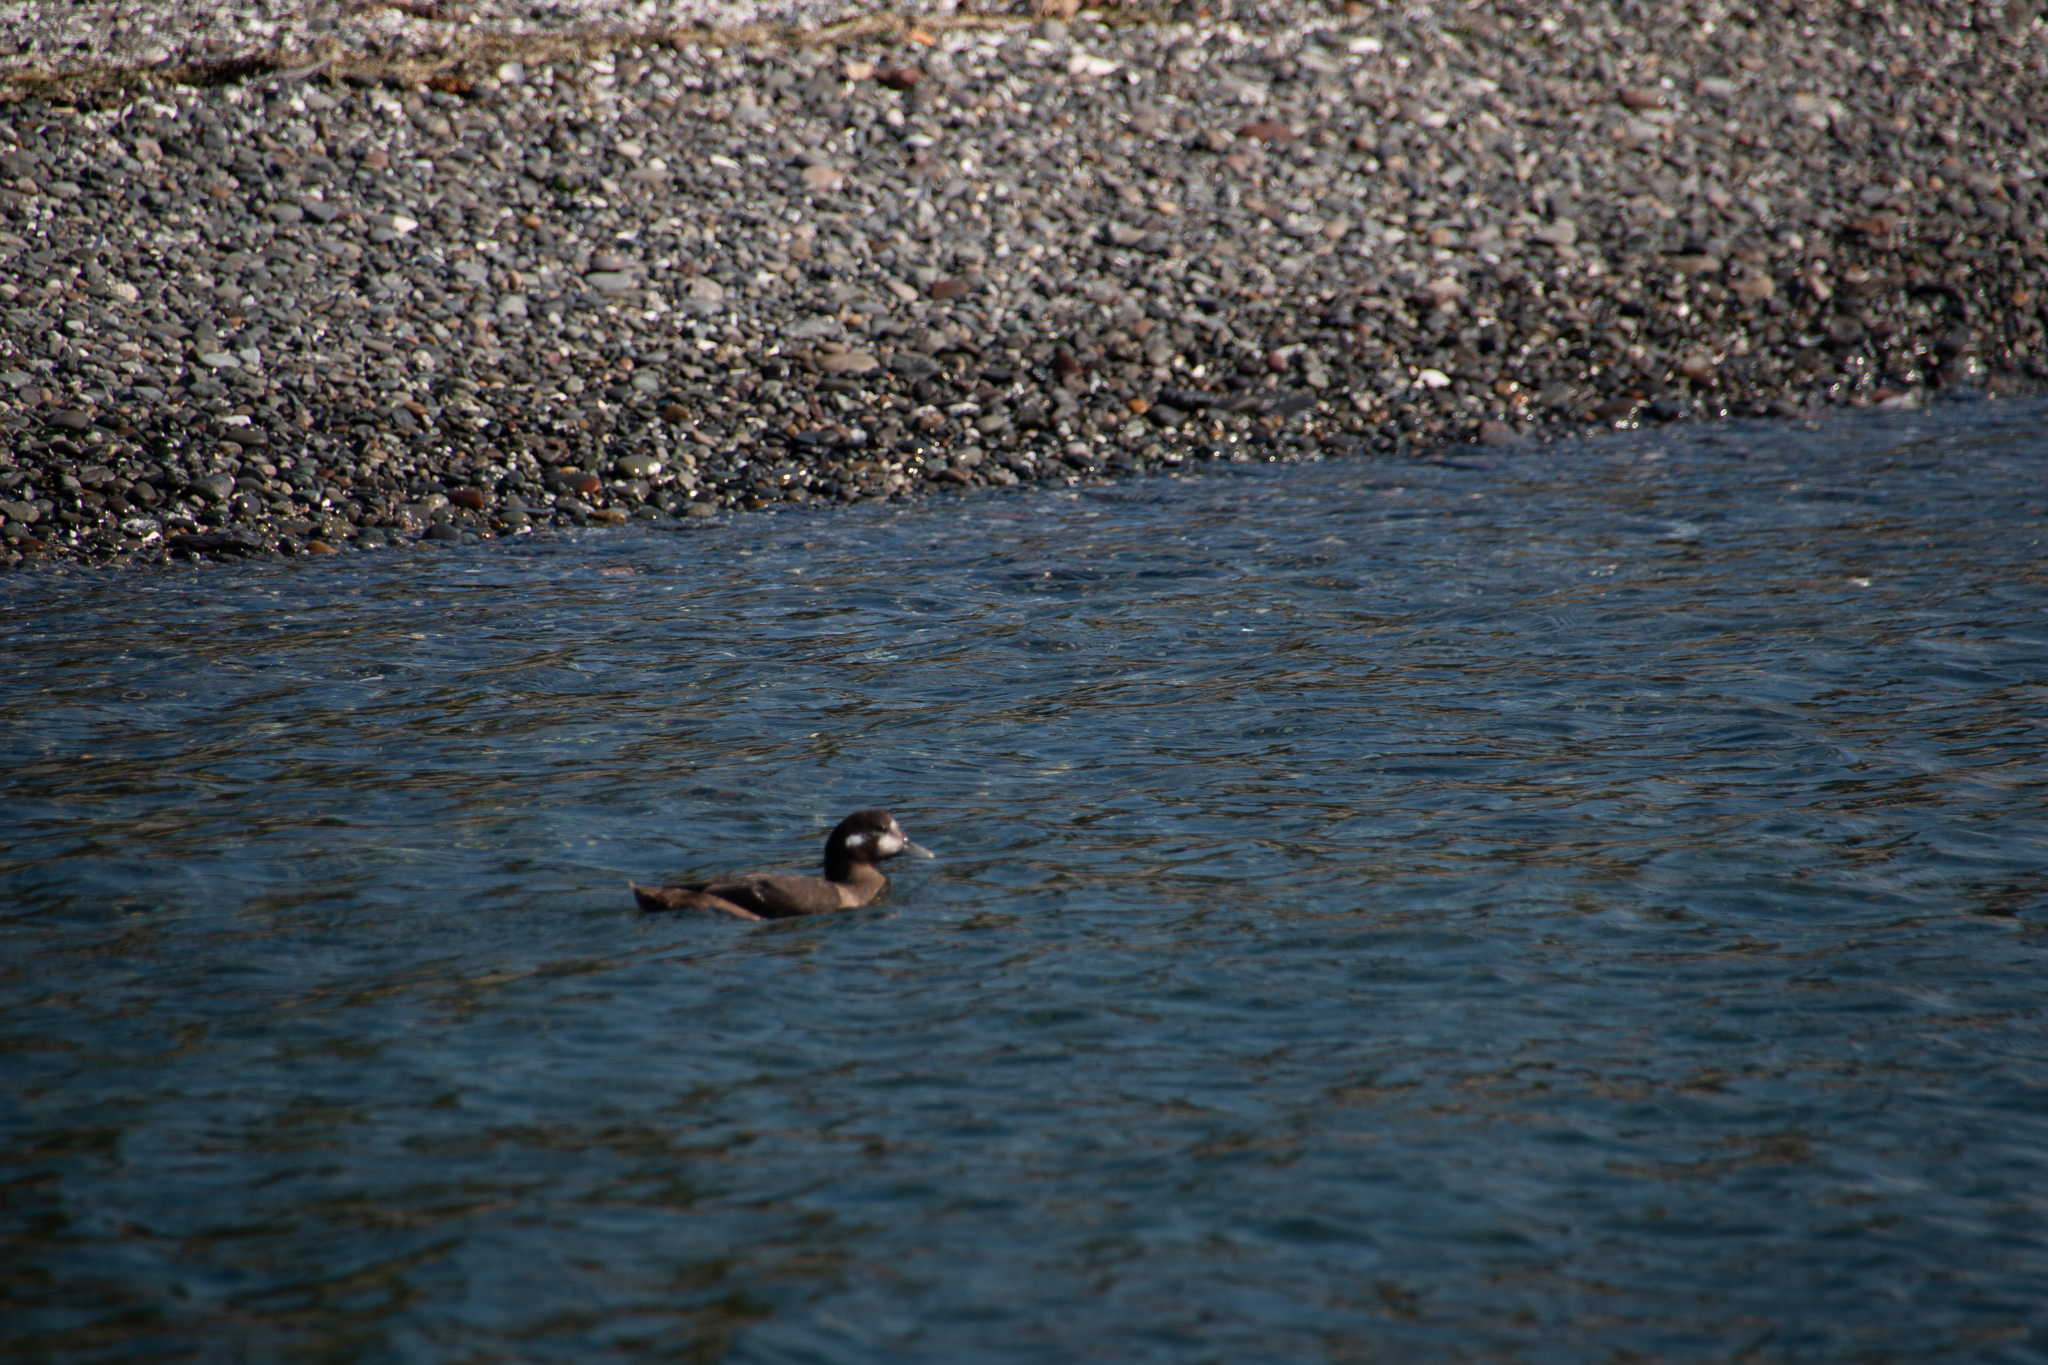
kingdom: Animalia
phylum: Chordata
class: Aves
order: Anseriformes
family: Anatidae
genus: Histrionicus
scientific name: Histrionicus histrionicus
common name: Harlequin duck
